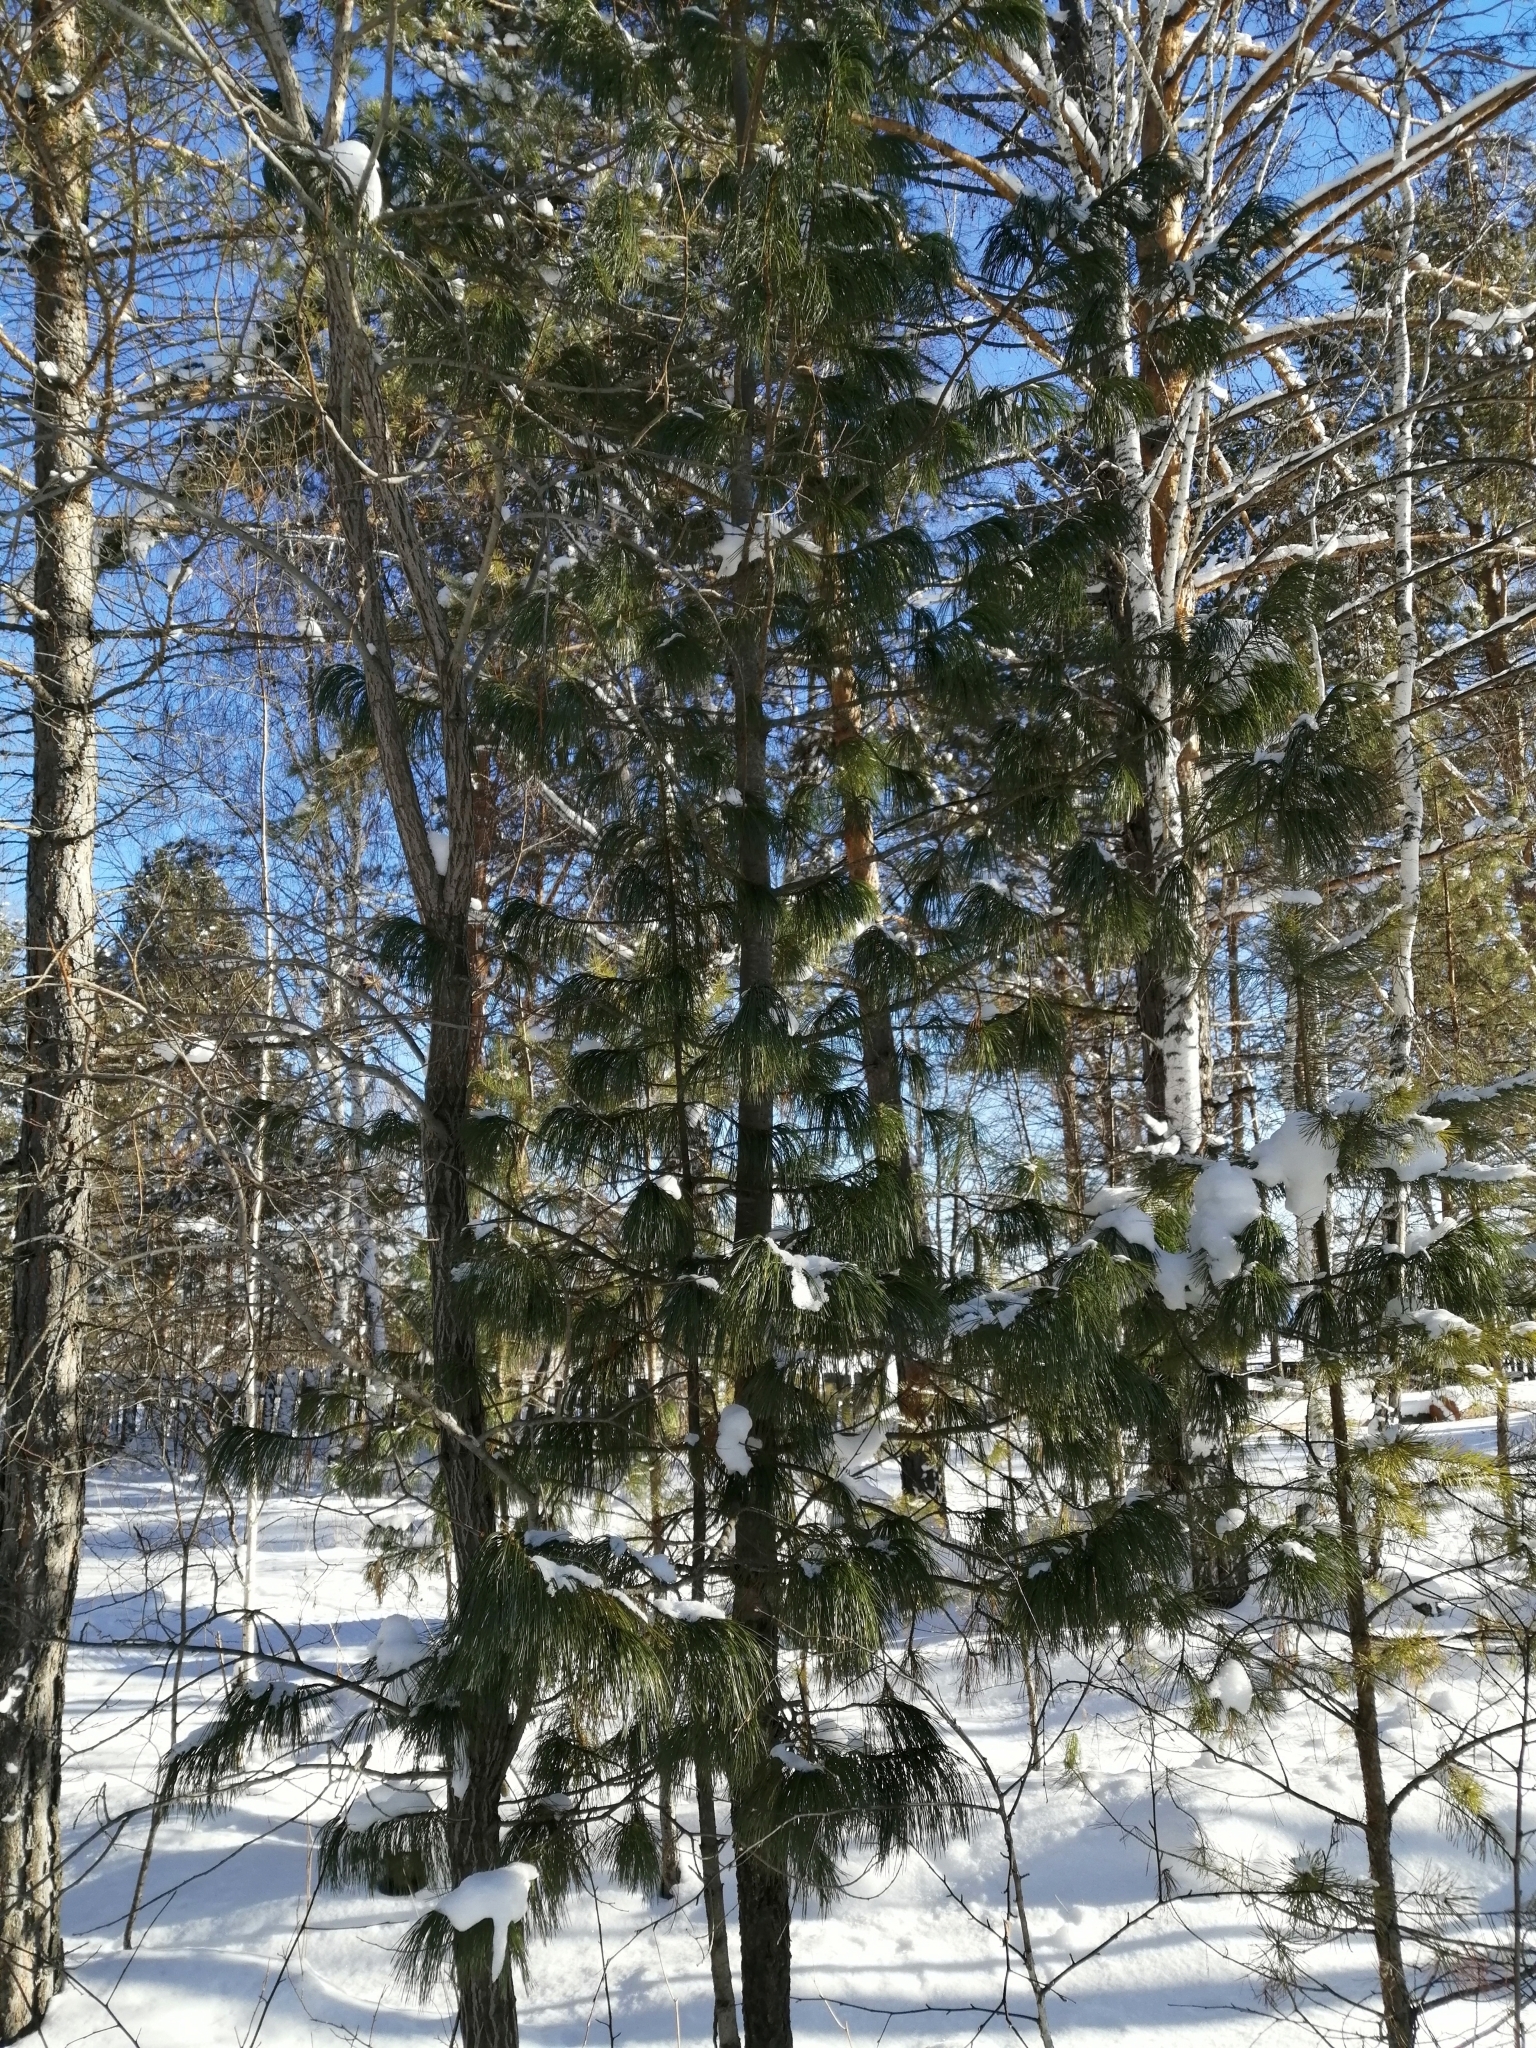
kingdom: Plantae
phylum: Tracheophyta
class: Pinopsida
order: Pinales
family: Pinaceae
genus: Pinus
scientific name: Pinus sibirica
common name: Siberian pine
